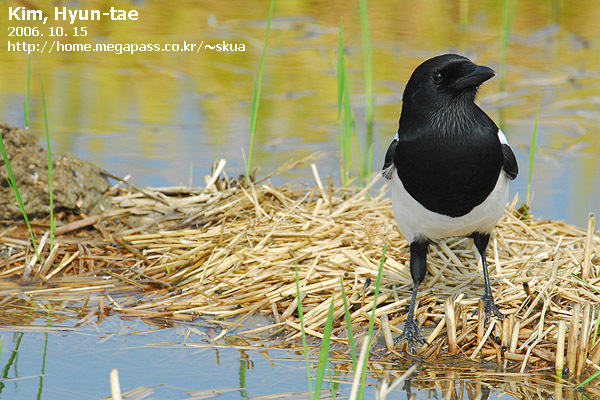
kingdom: Animalia
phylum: Chordata
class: Aves
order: Passeriformes
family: Corvidae
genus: Pica
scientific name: Pica serica
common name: Oriental magpie
